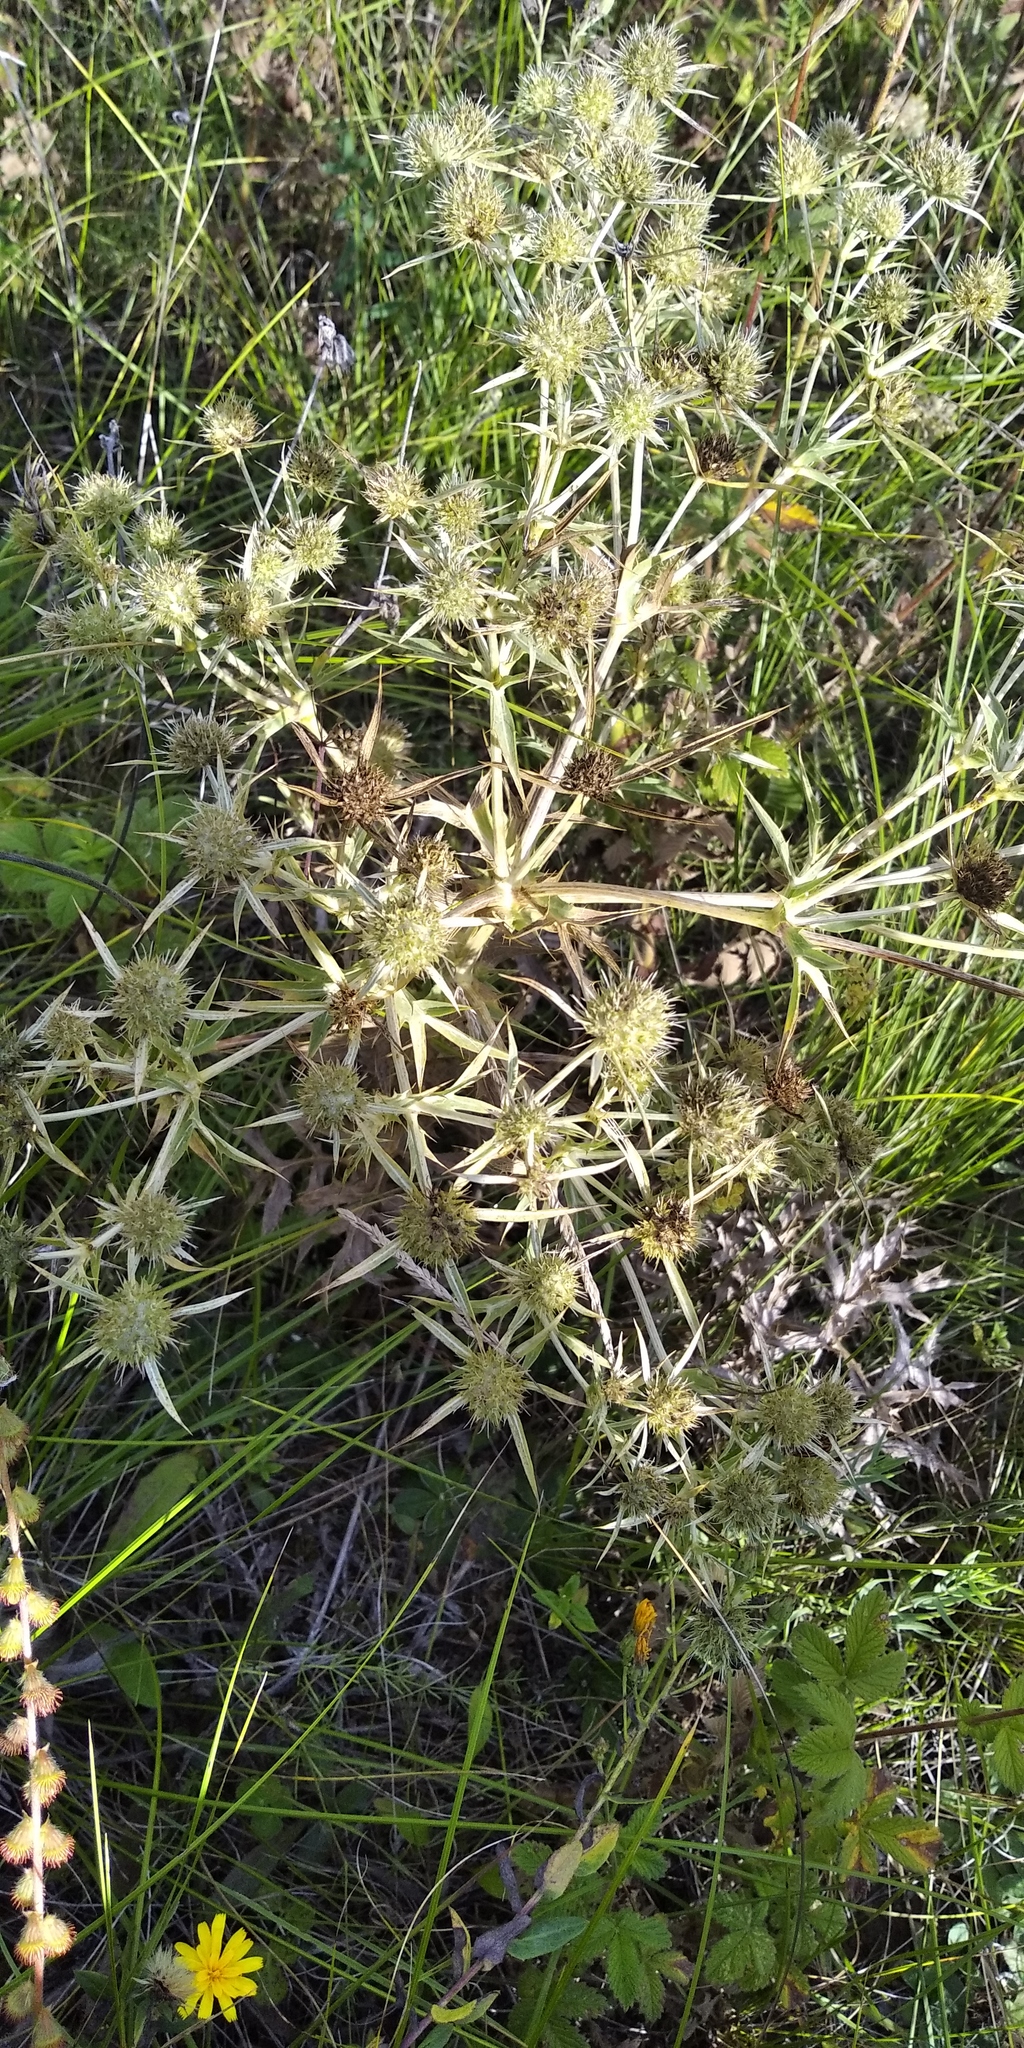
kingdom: Plantae
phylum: Tracheophyta
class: Magnoliopsida
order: Apiales
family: Apiaceae
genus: Eryngium
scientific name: Eryngium campestre
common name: Field eryngo
